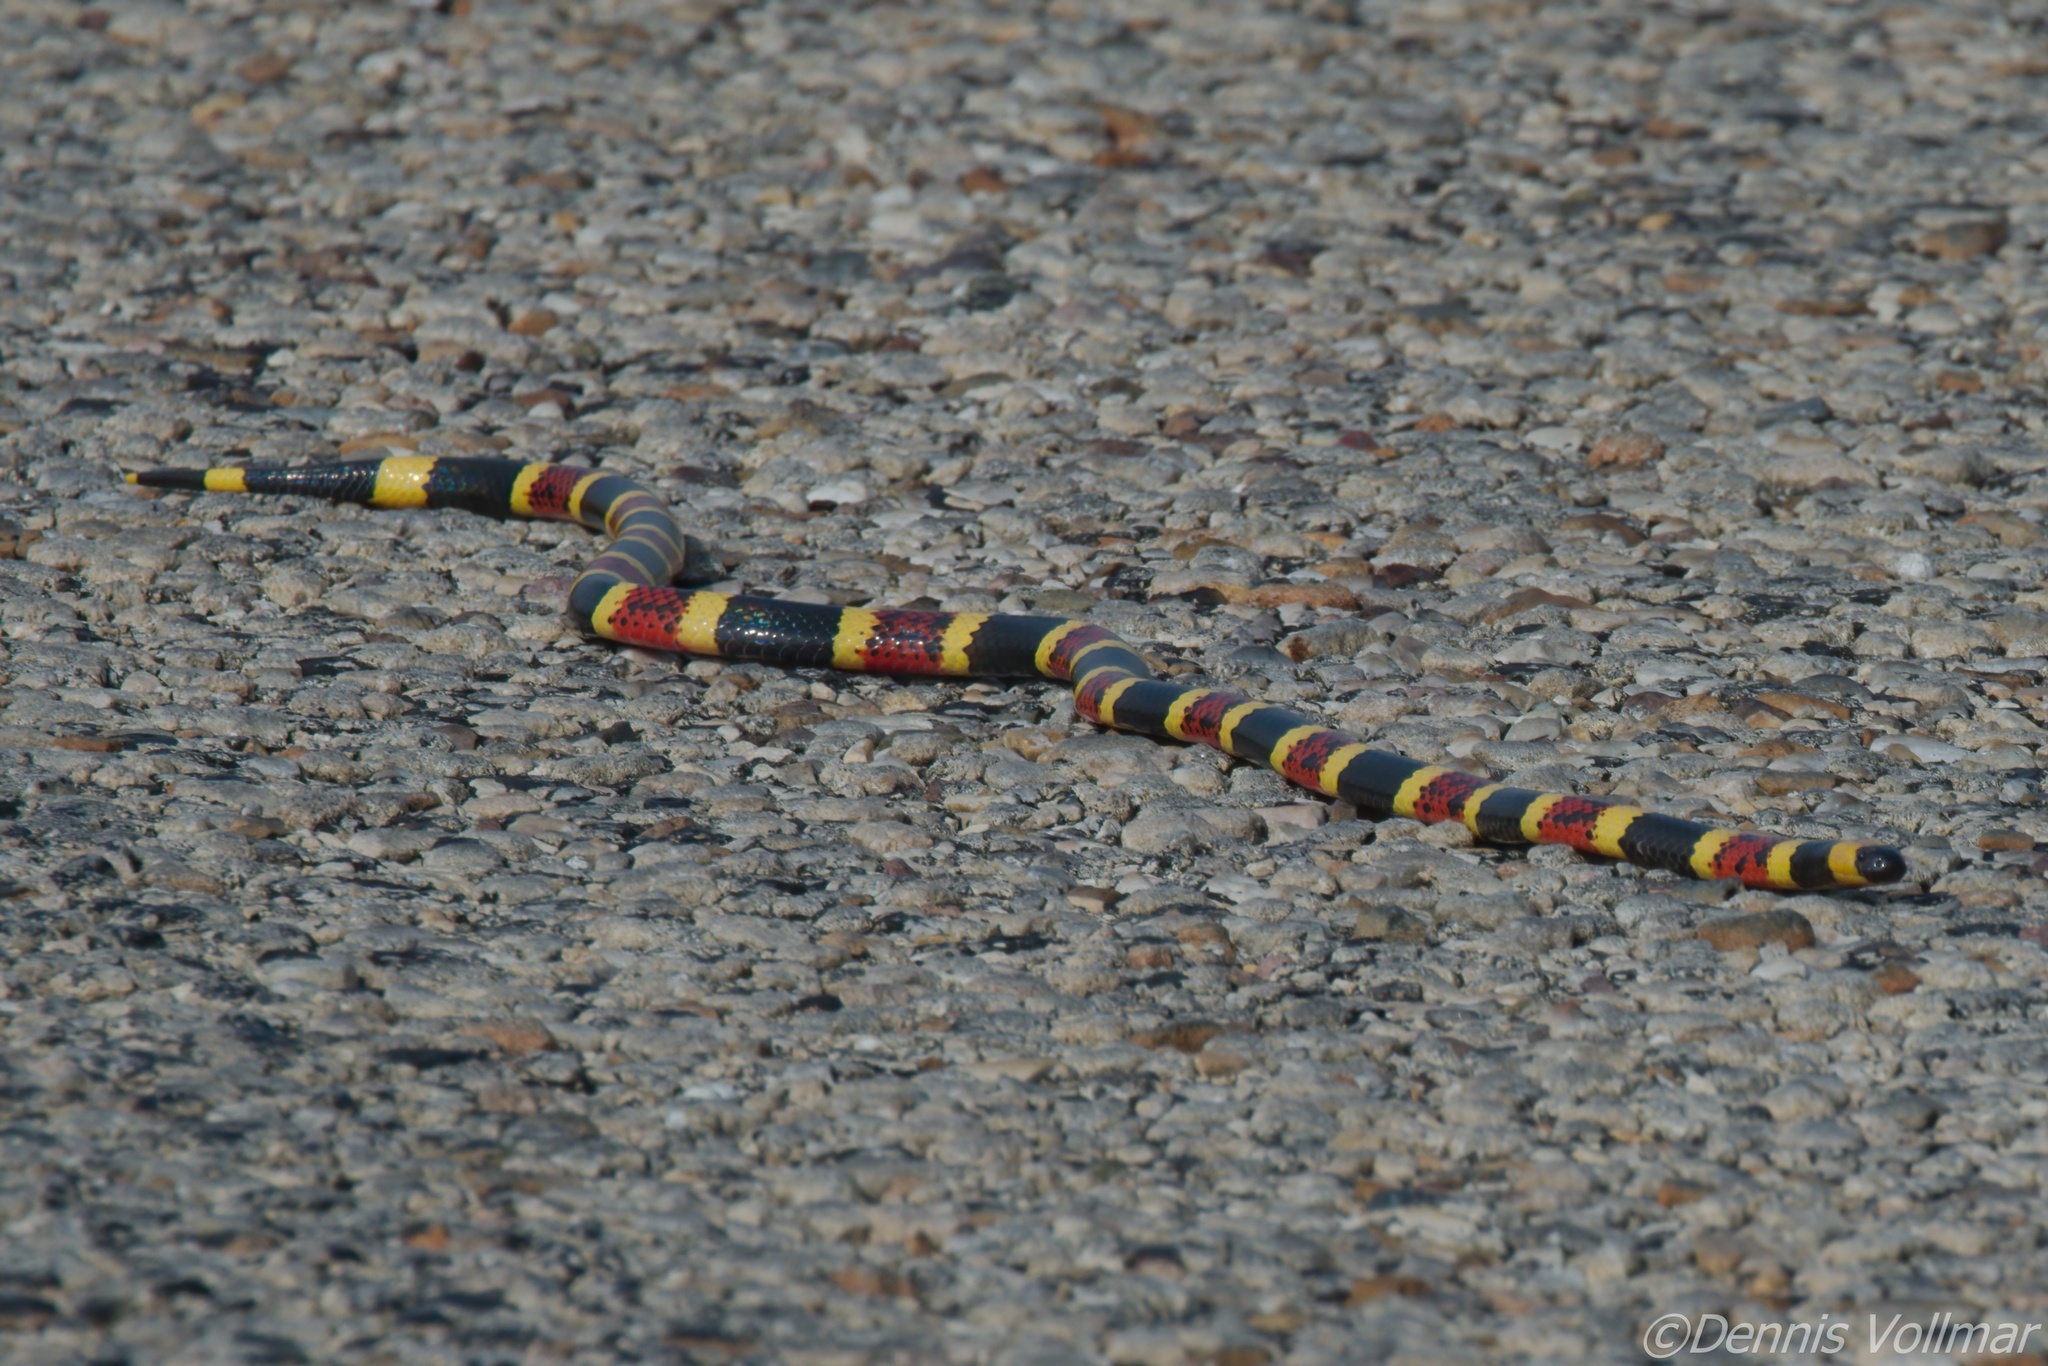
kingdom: Animalia
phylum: Chordata
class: Squamata
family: Elapidae
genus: Micrurus
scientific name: Micrurus tener
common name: Texas coral snake
